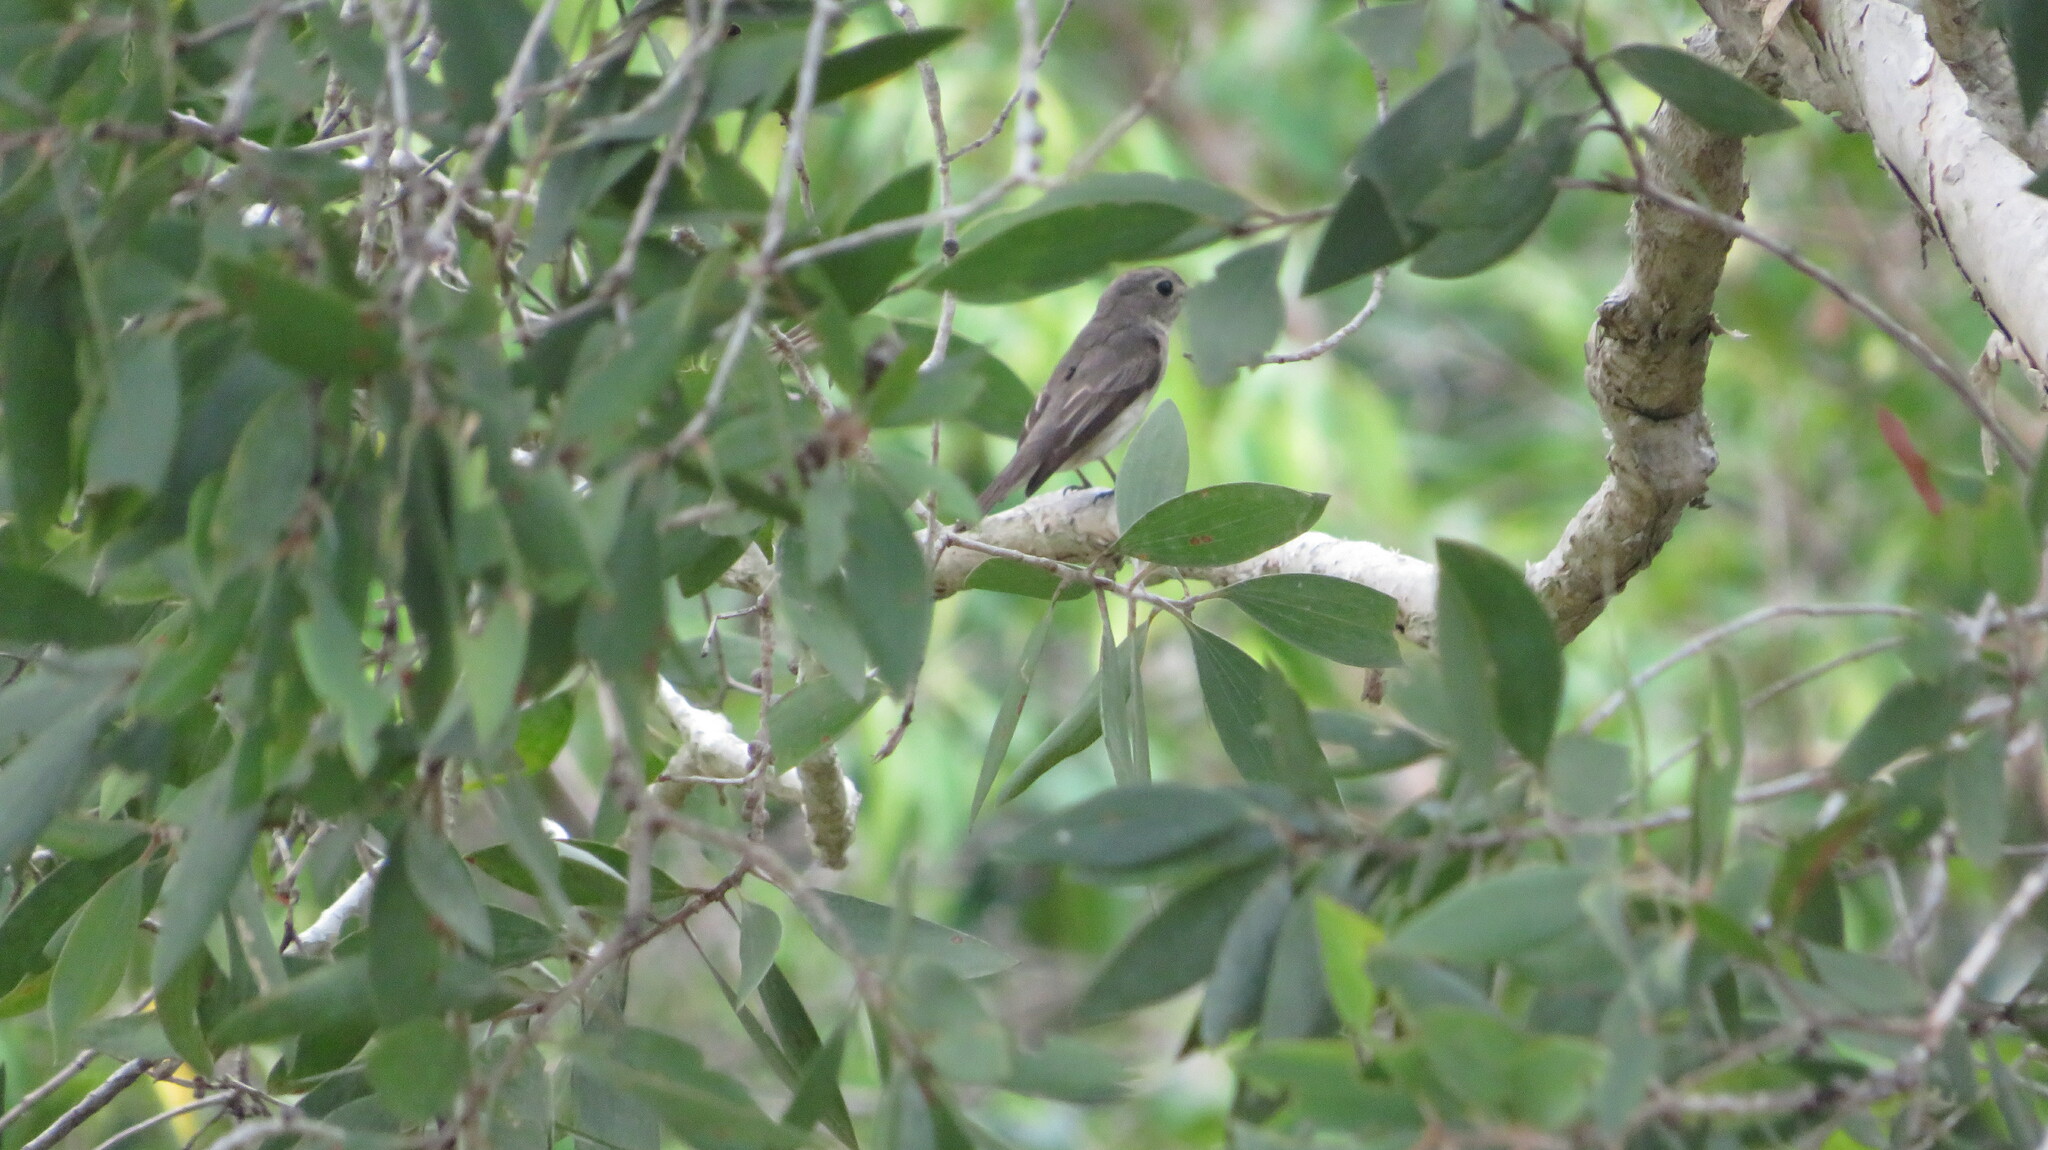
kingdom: Animalia
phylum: Chordata
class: Aves
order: Passeriformes
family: Muscicapidae
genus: Muscicapa
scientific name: Muscicapa latirostris
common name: Asian brown flycatcher
